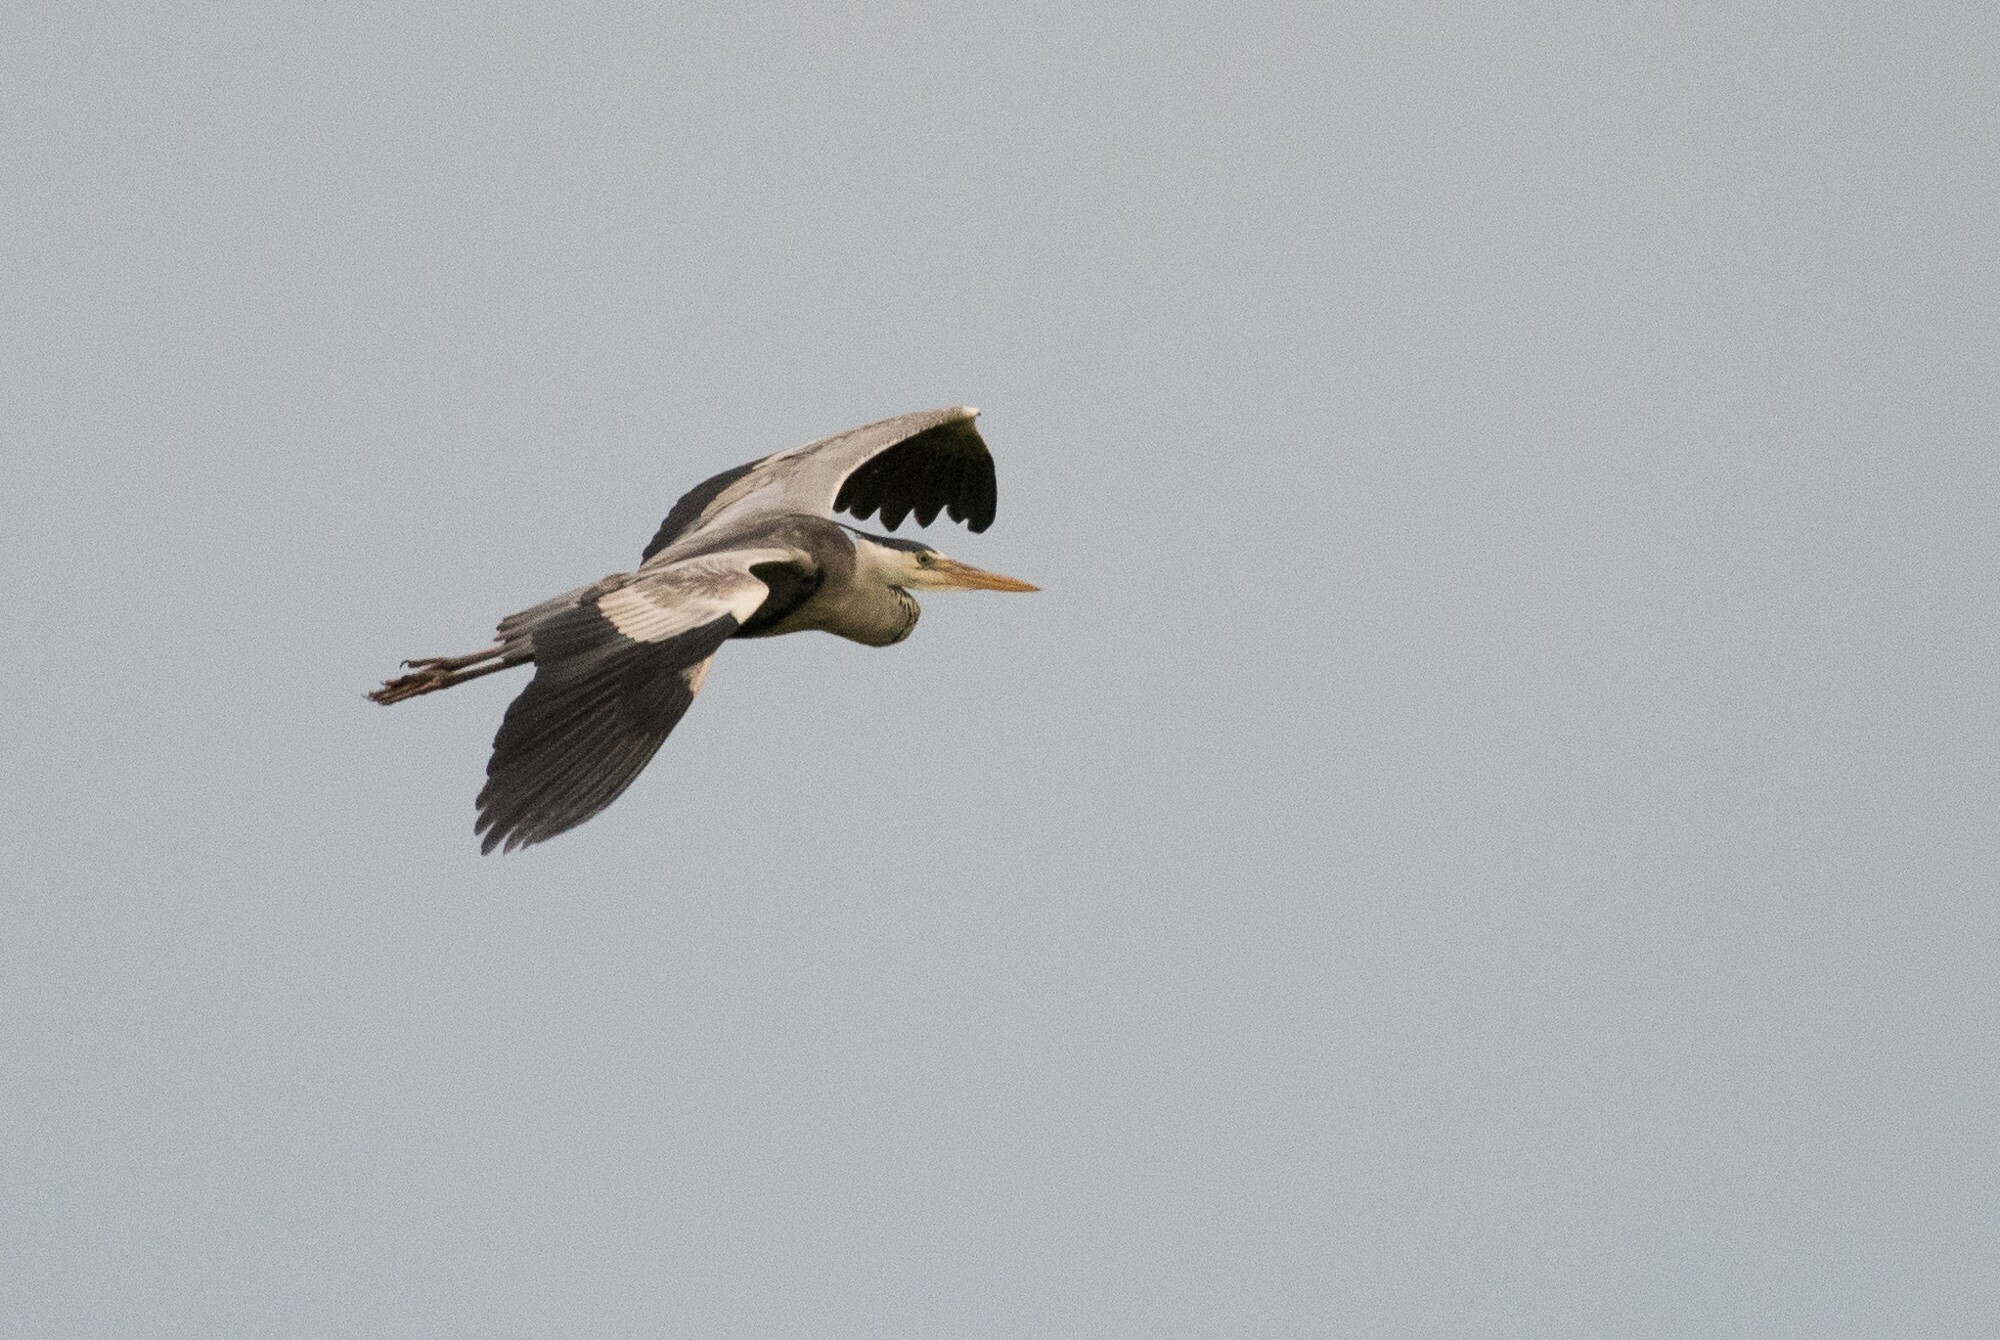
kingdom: Animalia
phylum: Chordata
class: Aves
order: Pelecaniformes
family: Ardeidae
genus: Ardea
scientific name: Ardea cinerea
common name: Grey heron
